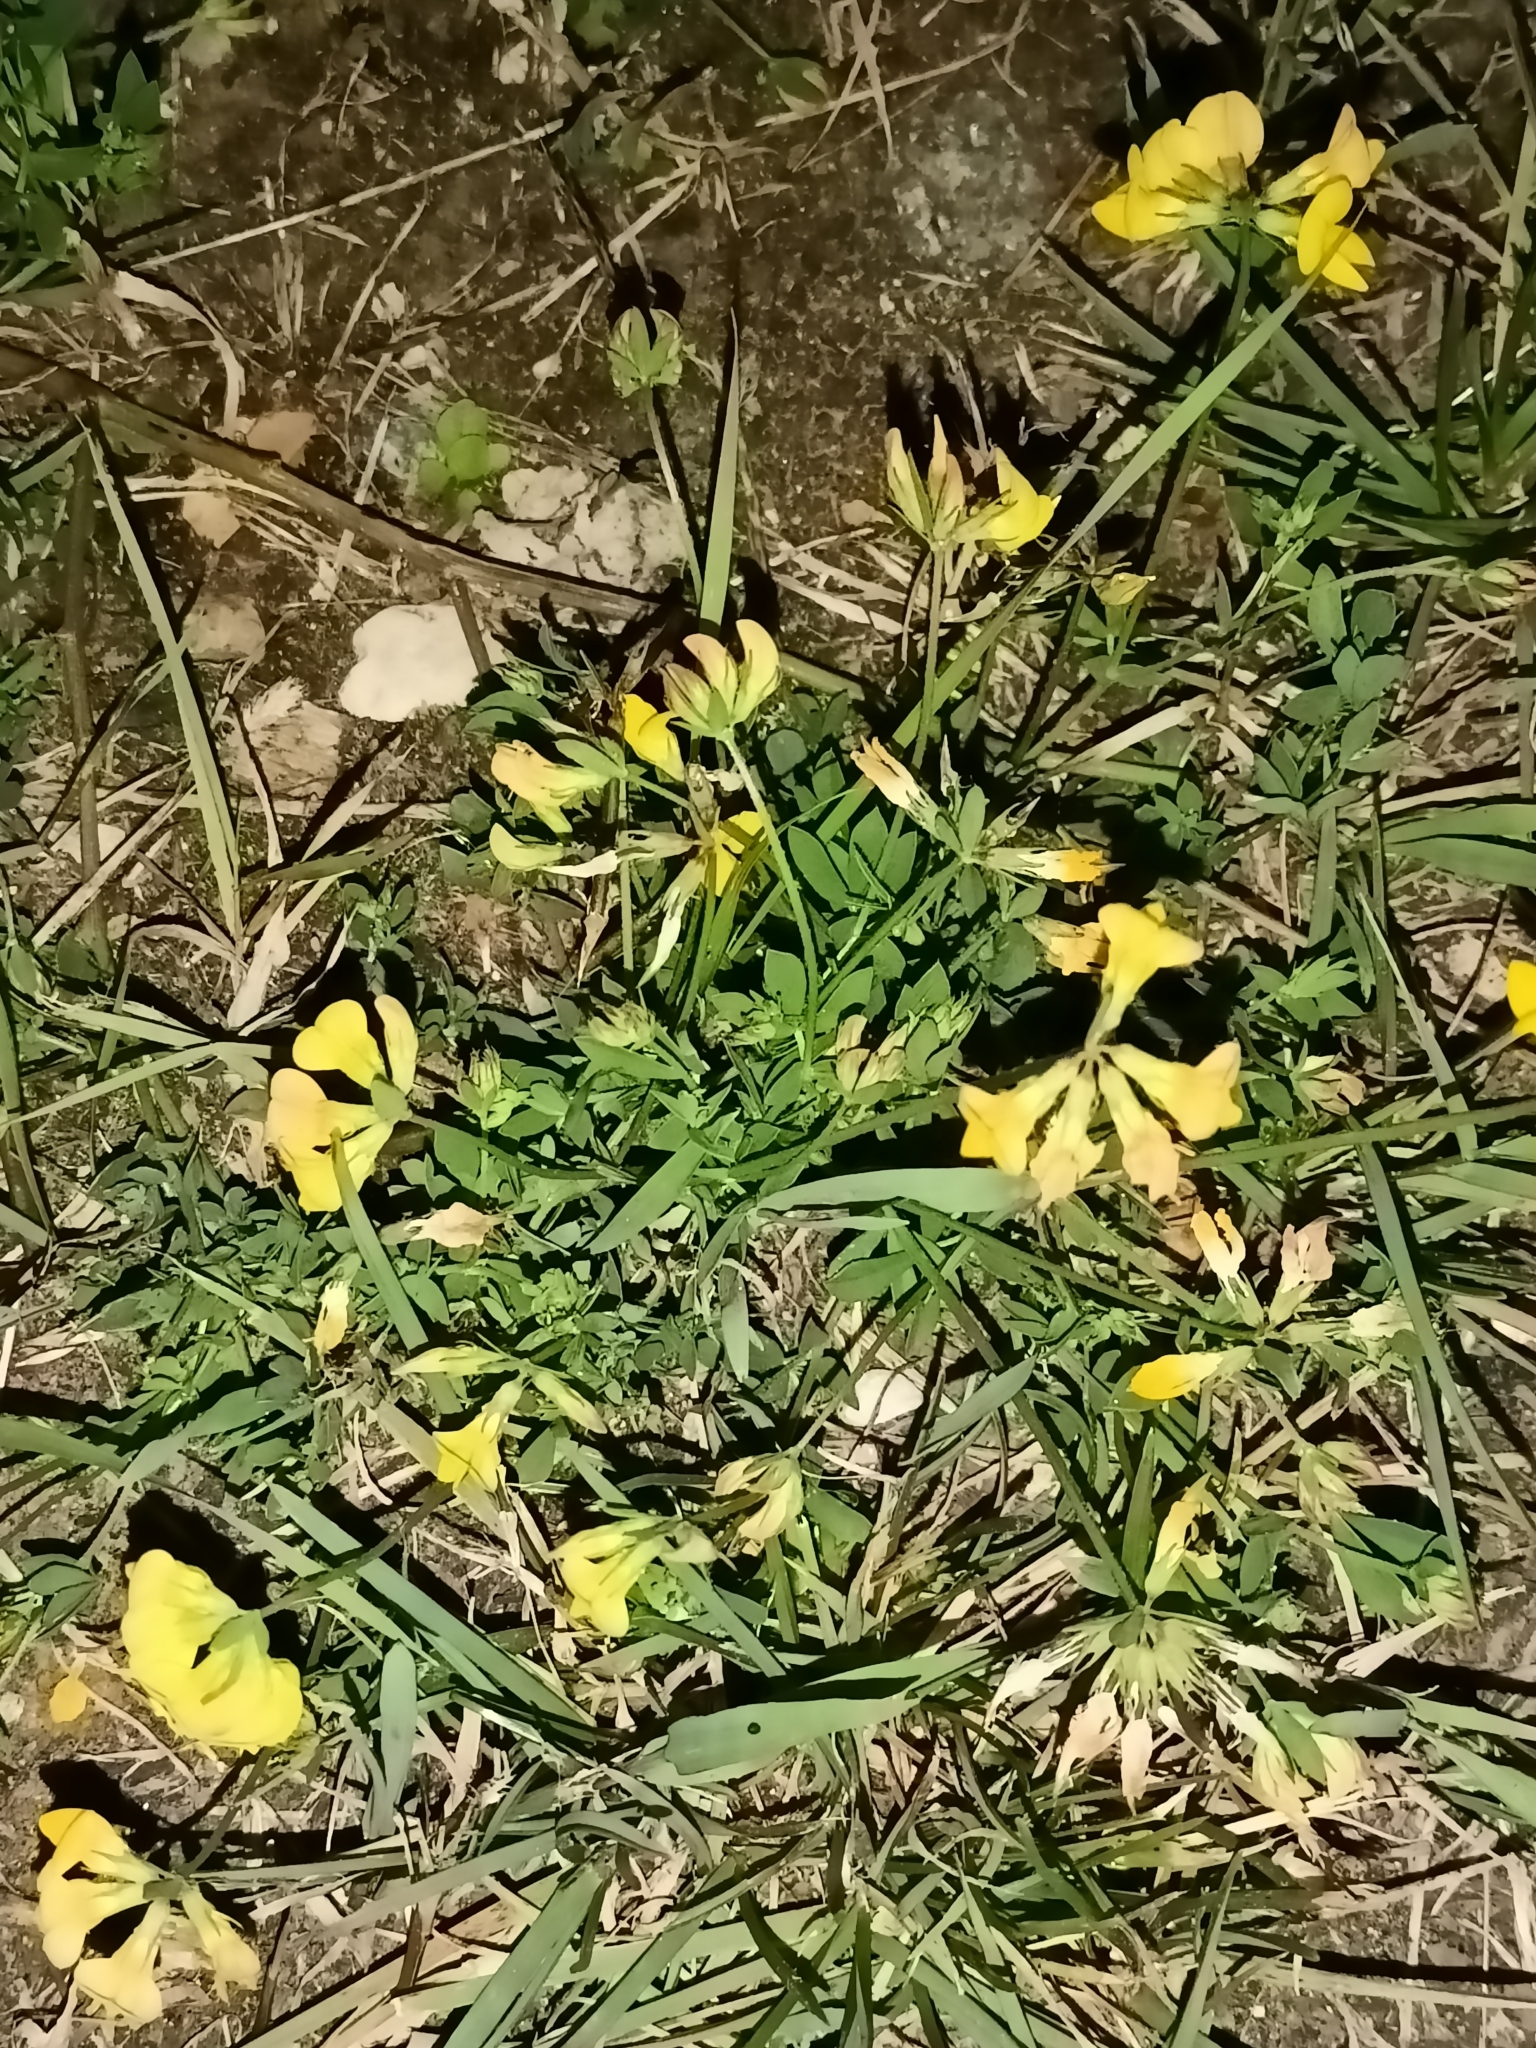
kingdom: Plantae
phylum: Tracheophyta
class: Magnoliopsida
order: Fabales
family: Fabaceae
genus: Lotus
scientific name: Lotus corniculatus
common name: Common bird's-foot-trefoil
